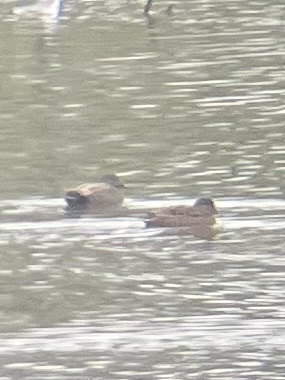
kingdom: Animalia
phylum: Chordata
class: Aves
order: Anseriformes
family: Anatidae
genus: Mareca
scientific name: Mareca strepera
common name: Gadwall
